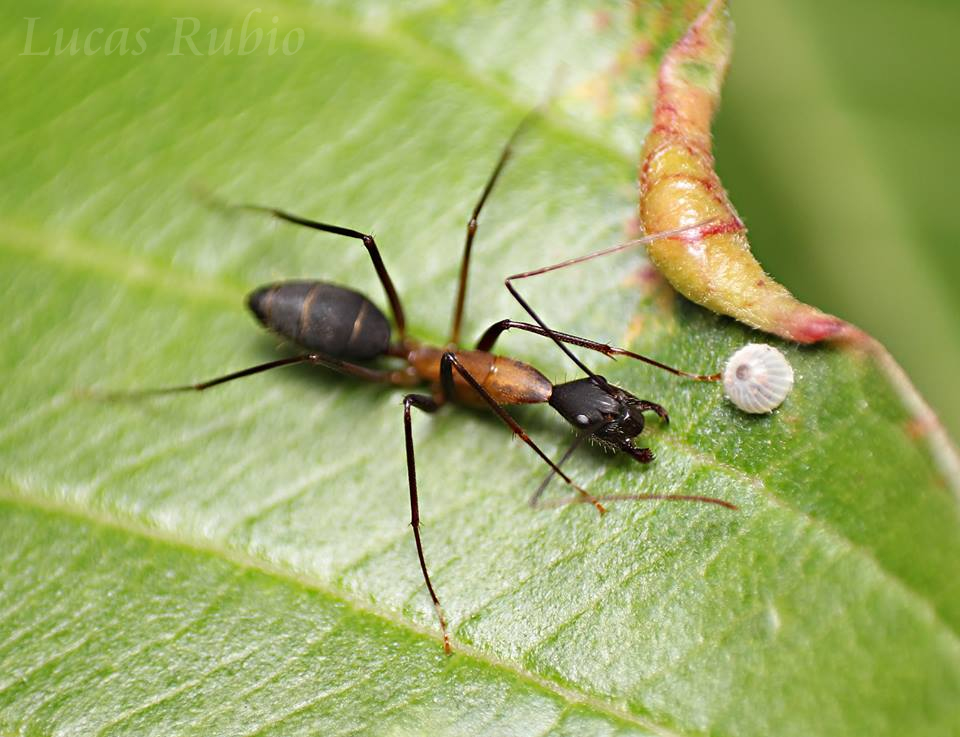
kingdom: Animalia
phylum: Arthropoda
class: Insecta
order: Hymenoptera
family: Formicidae
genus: Camponotus
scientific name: Camponotus lespesii
